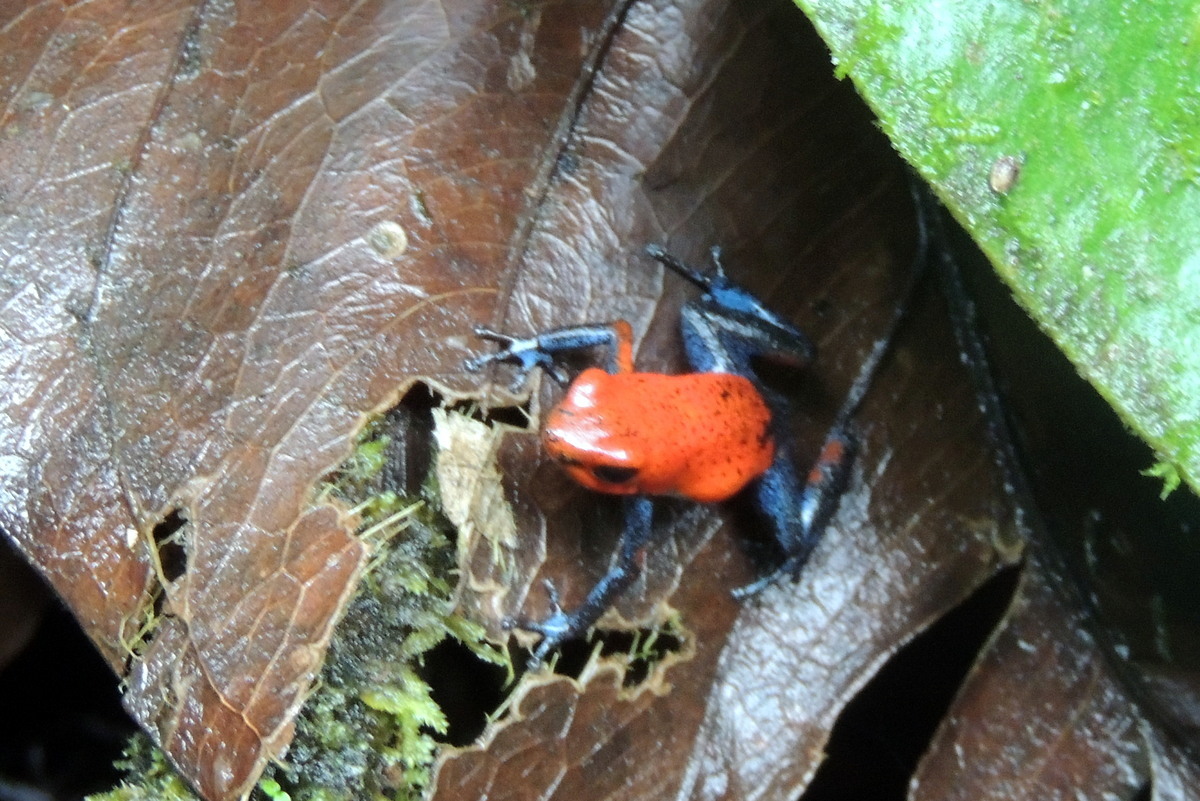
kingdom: Animalia
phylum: Chordata
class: Amphibia
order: Anura
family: Dendrobatidae
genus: Oophaga
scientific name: Oophaga pumilio
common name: Flaming poison frog
